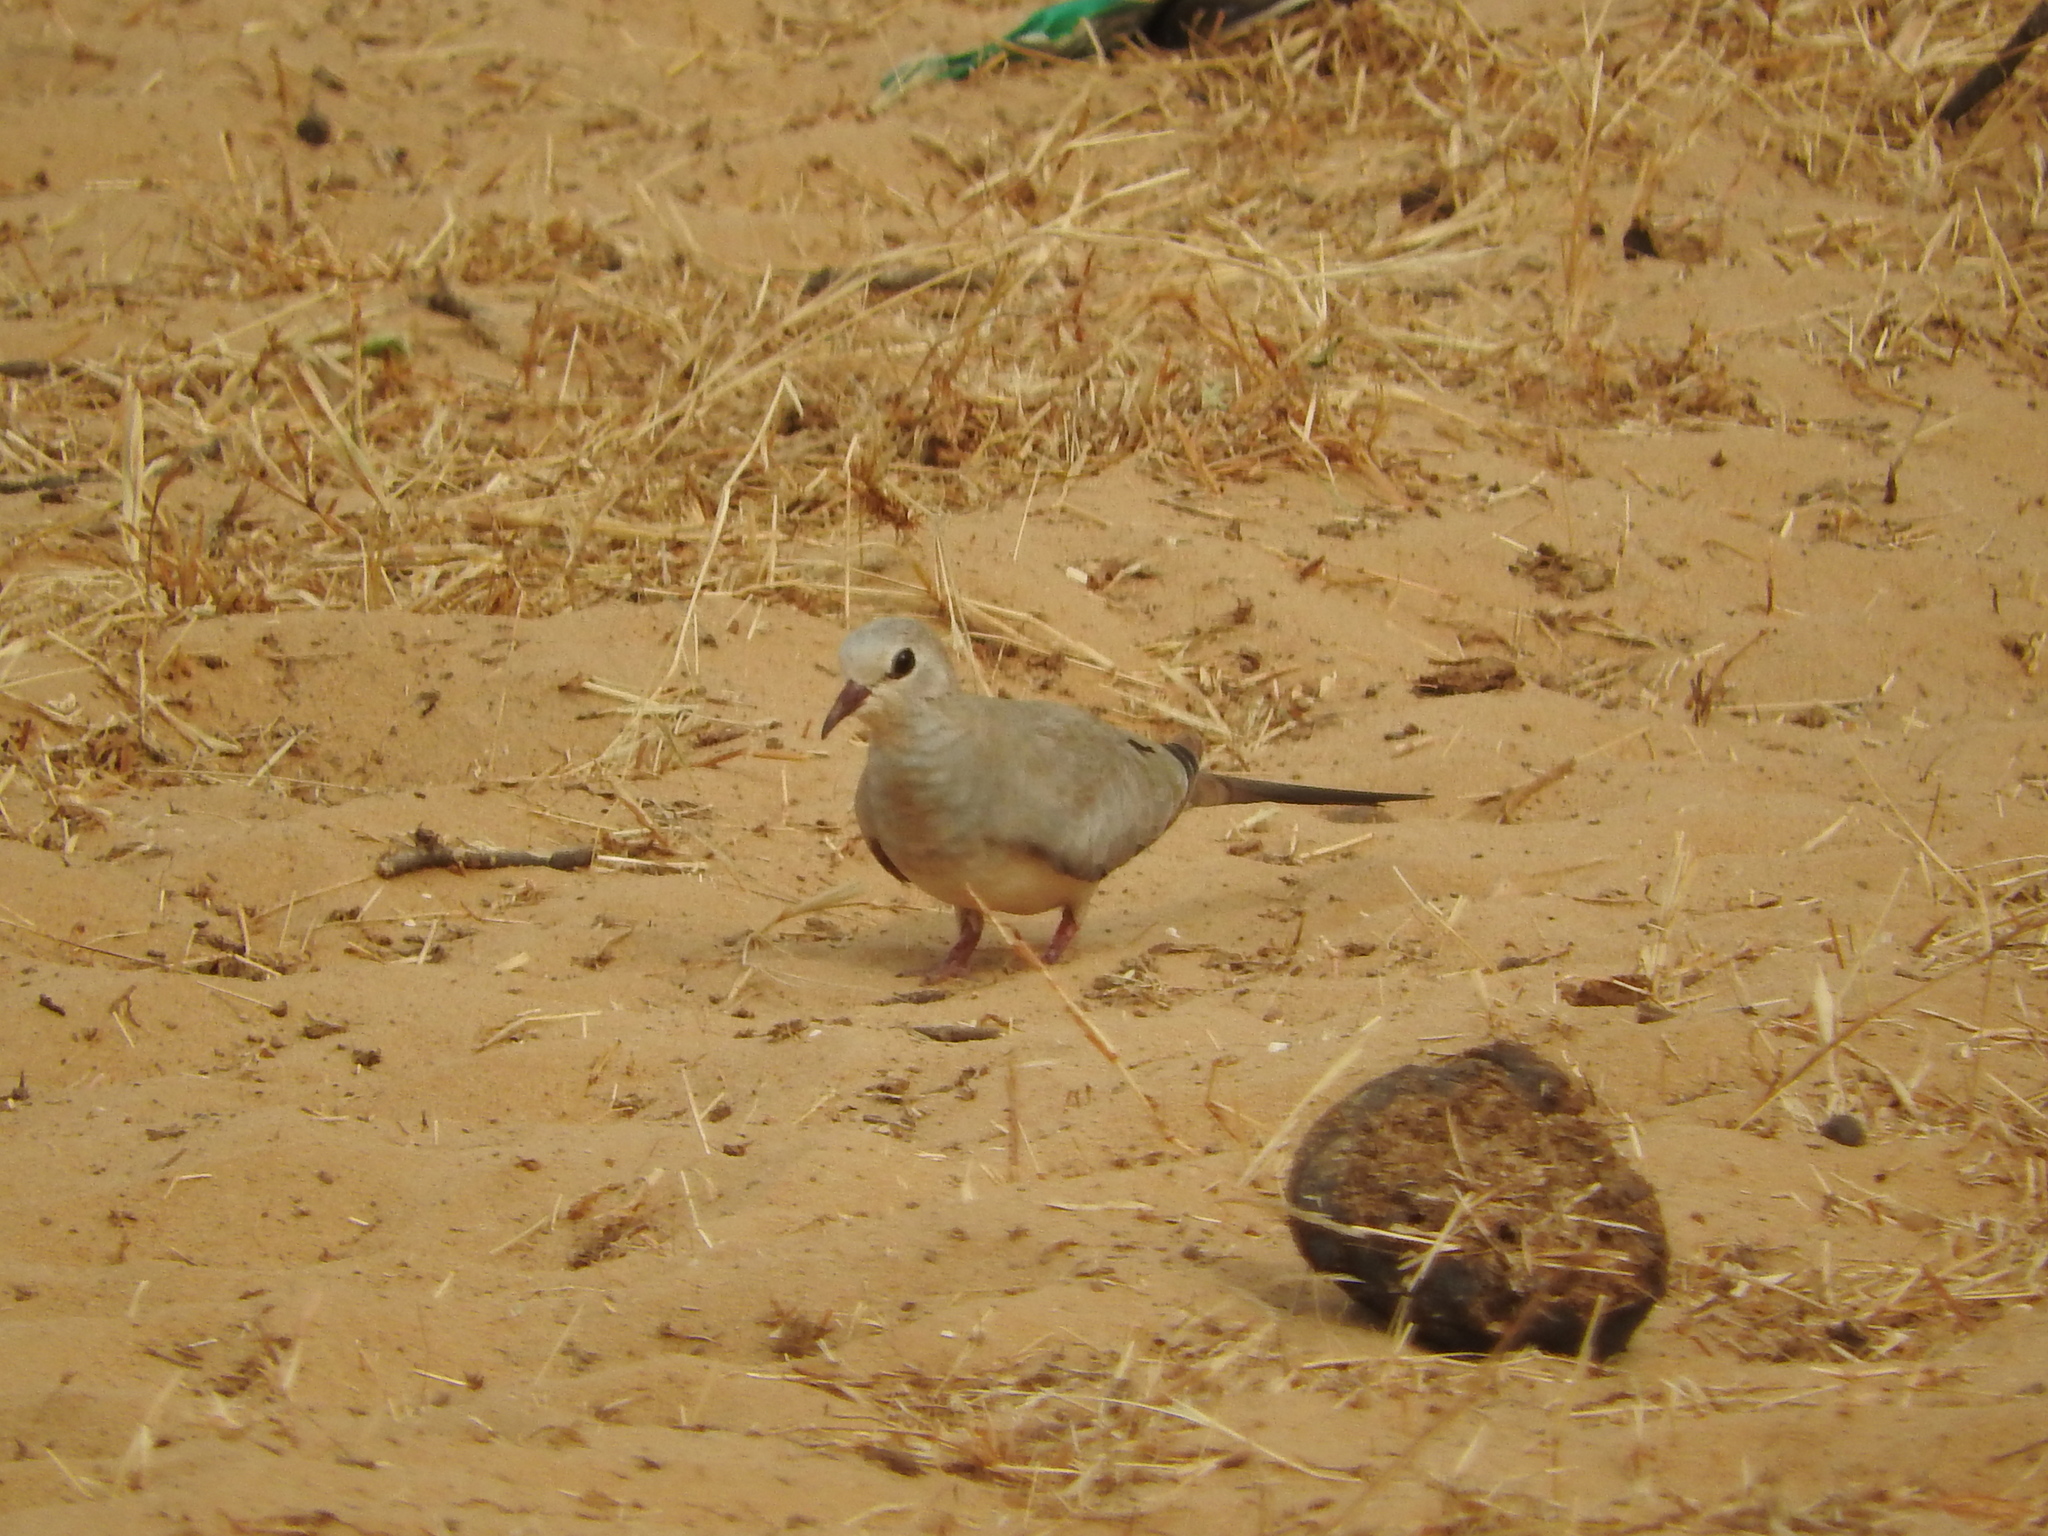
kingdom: Animalia
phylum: Chordata
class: Aves
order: Columbiformes
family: Columbidae
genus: Oena
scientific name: Oena capensis
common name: Namaqua dove
